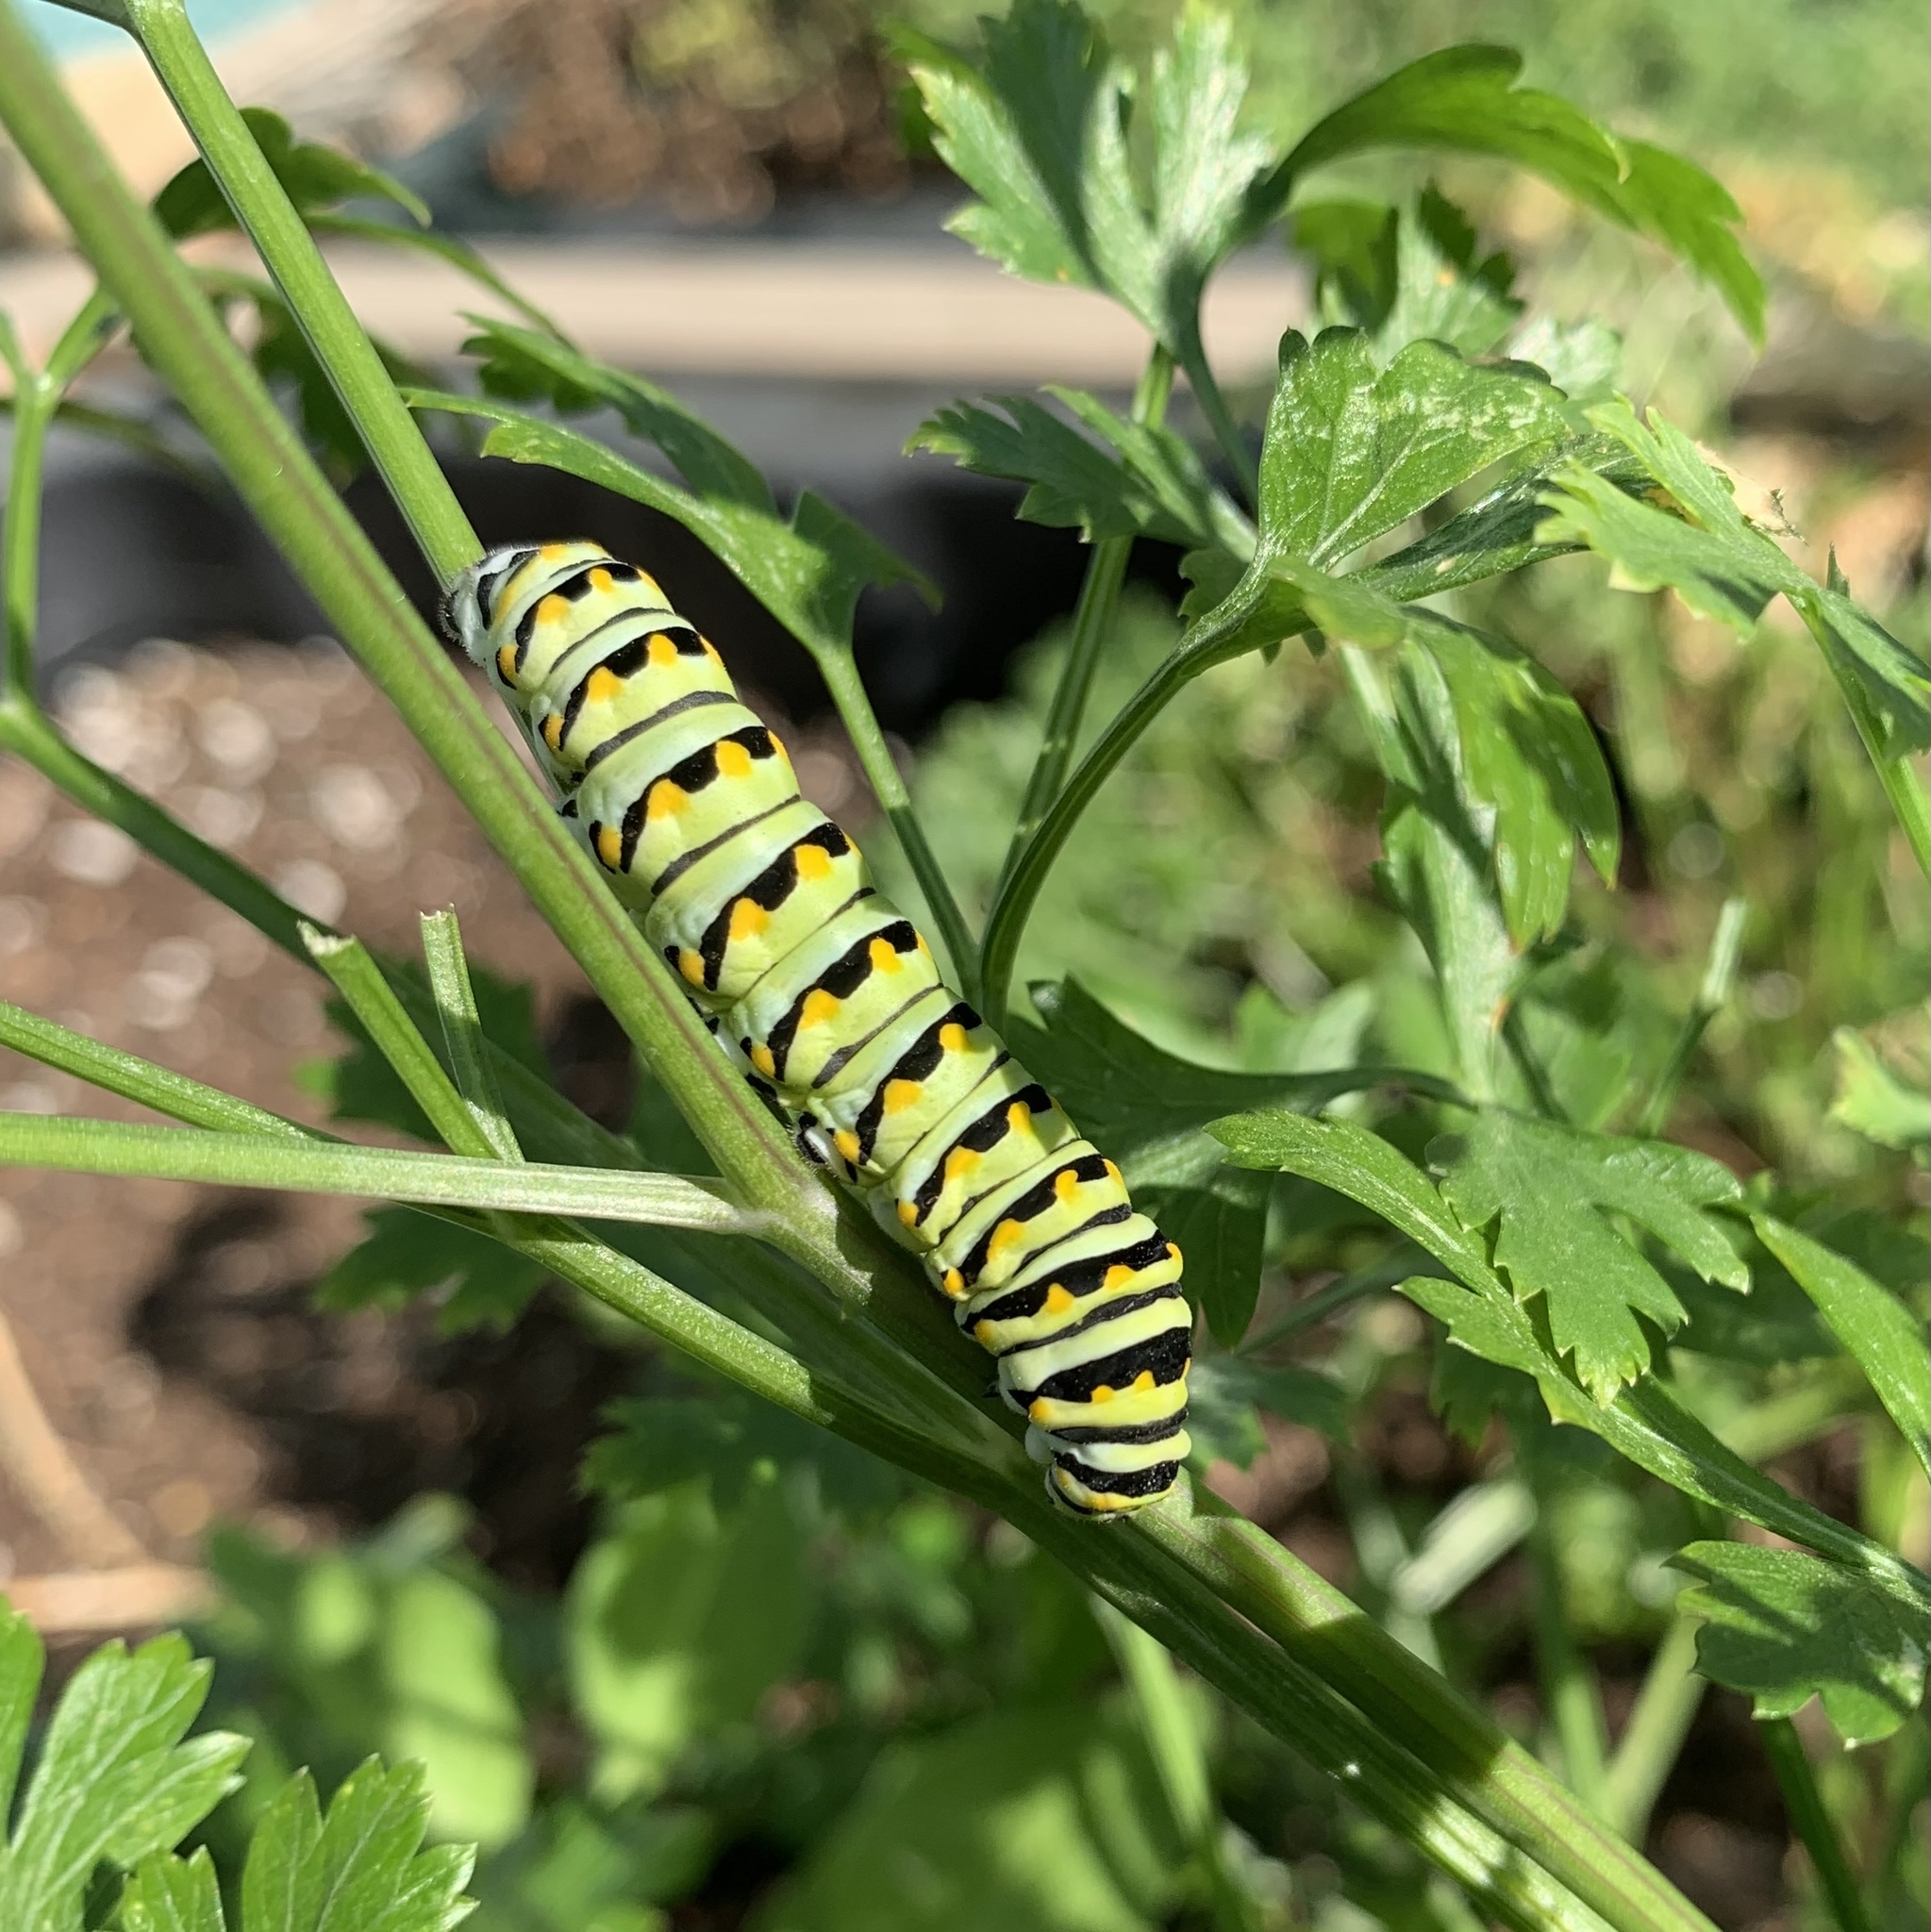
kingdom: Animalia
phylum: Arthropoda
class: Insecta
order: Lepidoptera
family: Papilionidae
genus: Papilio
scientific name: Papilio polyxenes
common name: Black swallowtail
